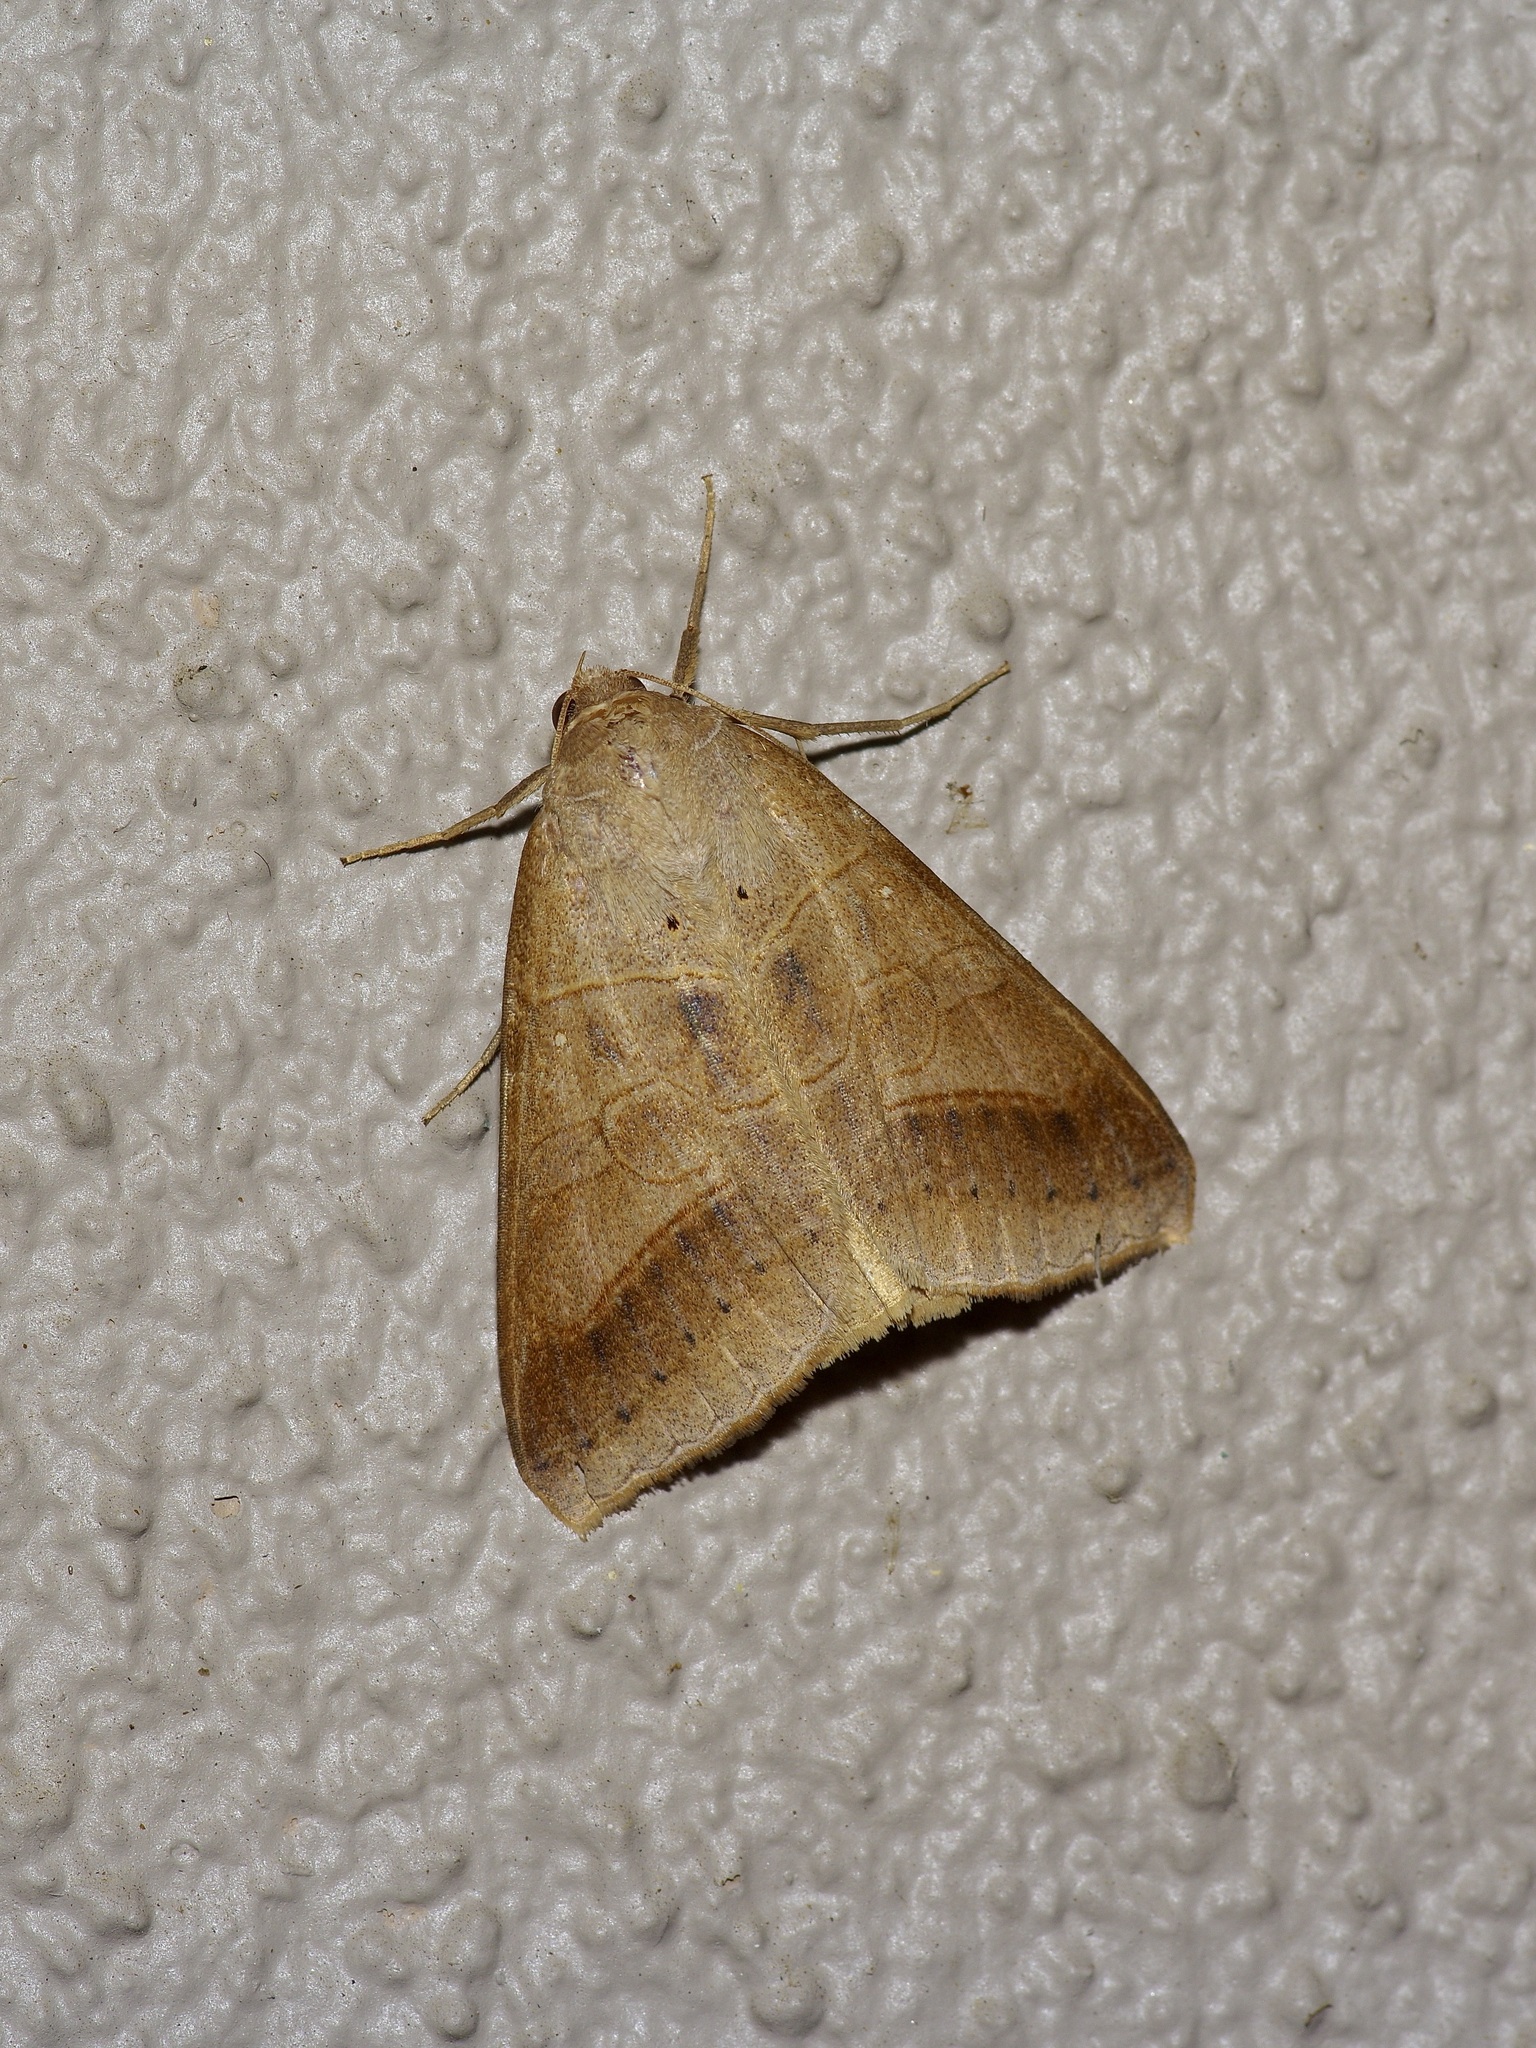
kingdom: Animalia
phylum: Arthropoda
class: Insecta
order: Lepidoptera
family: Erebidae
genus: Mocis
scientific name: Mocis marcida
